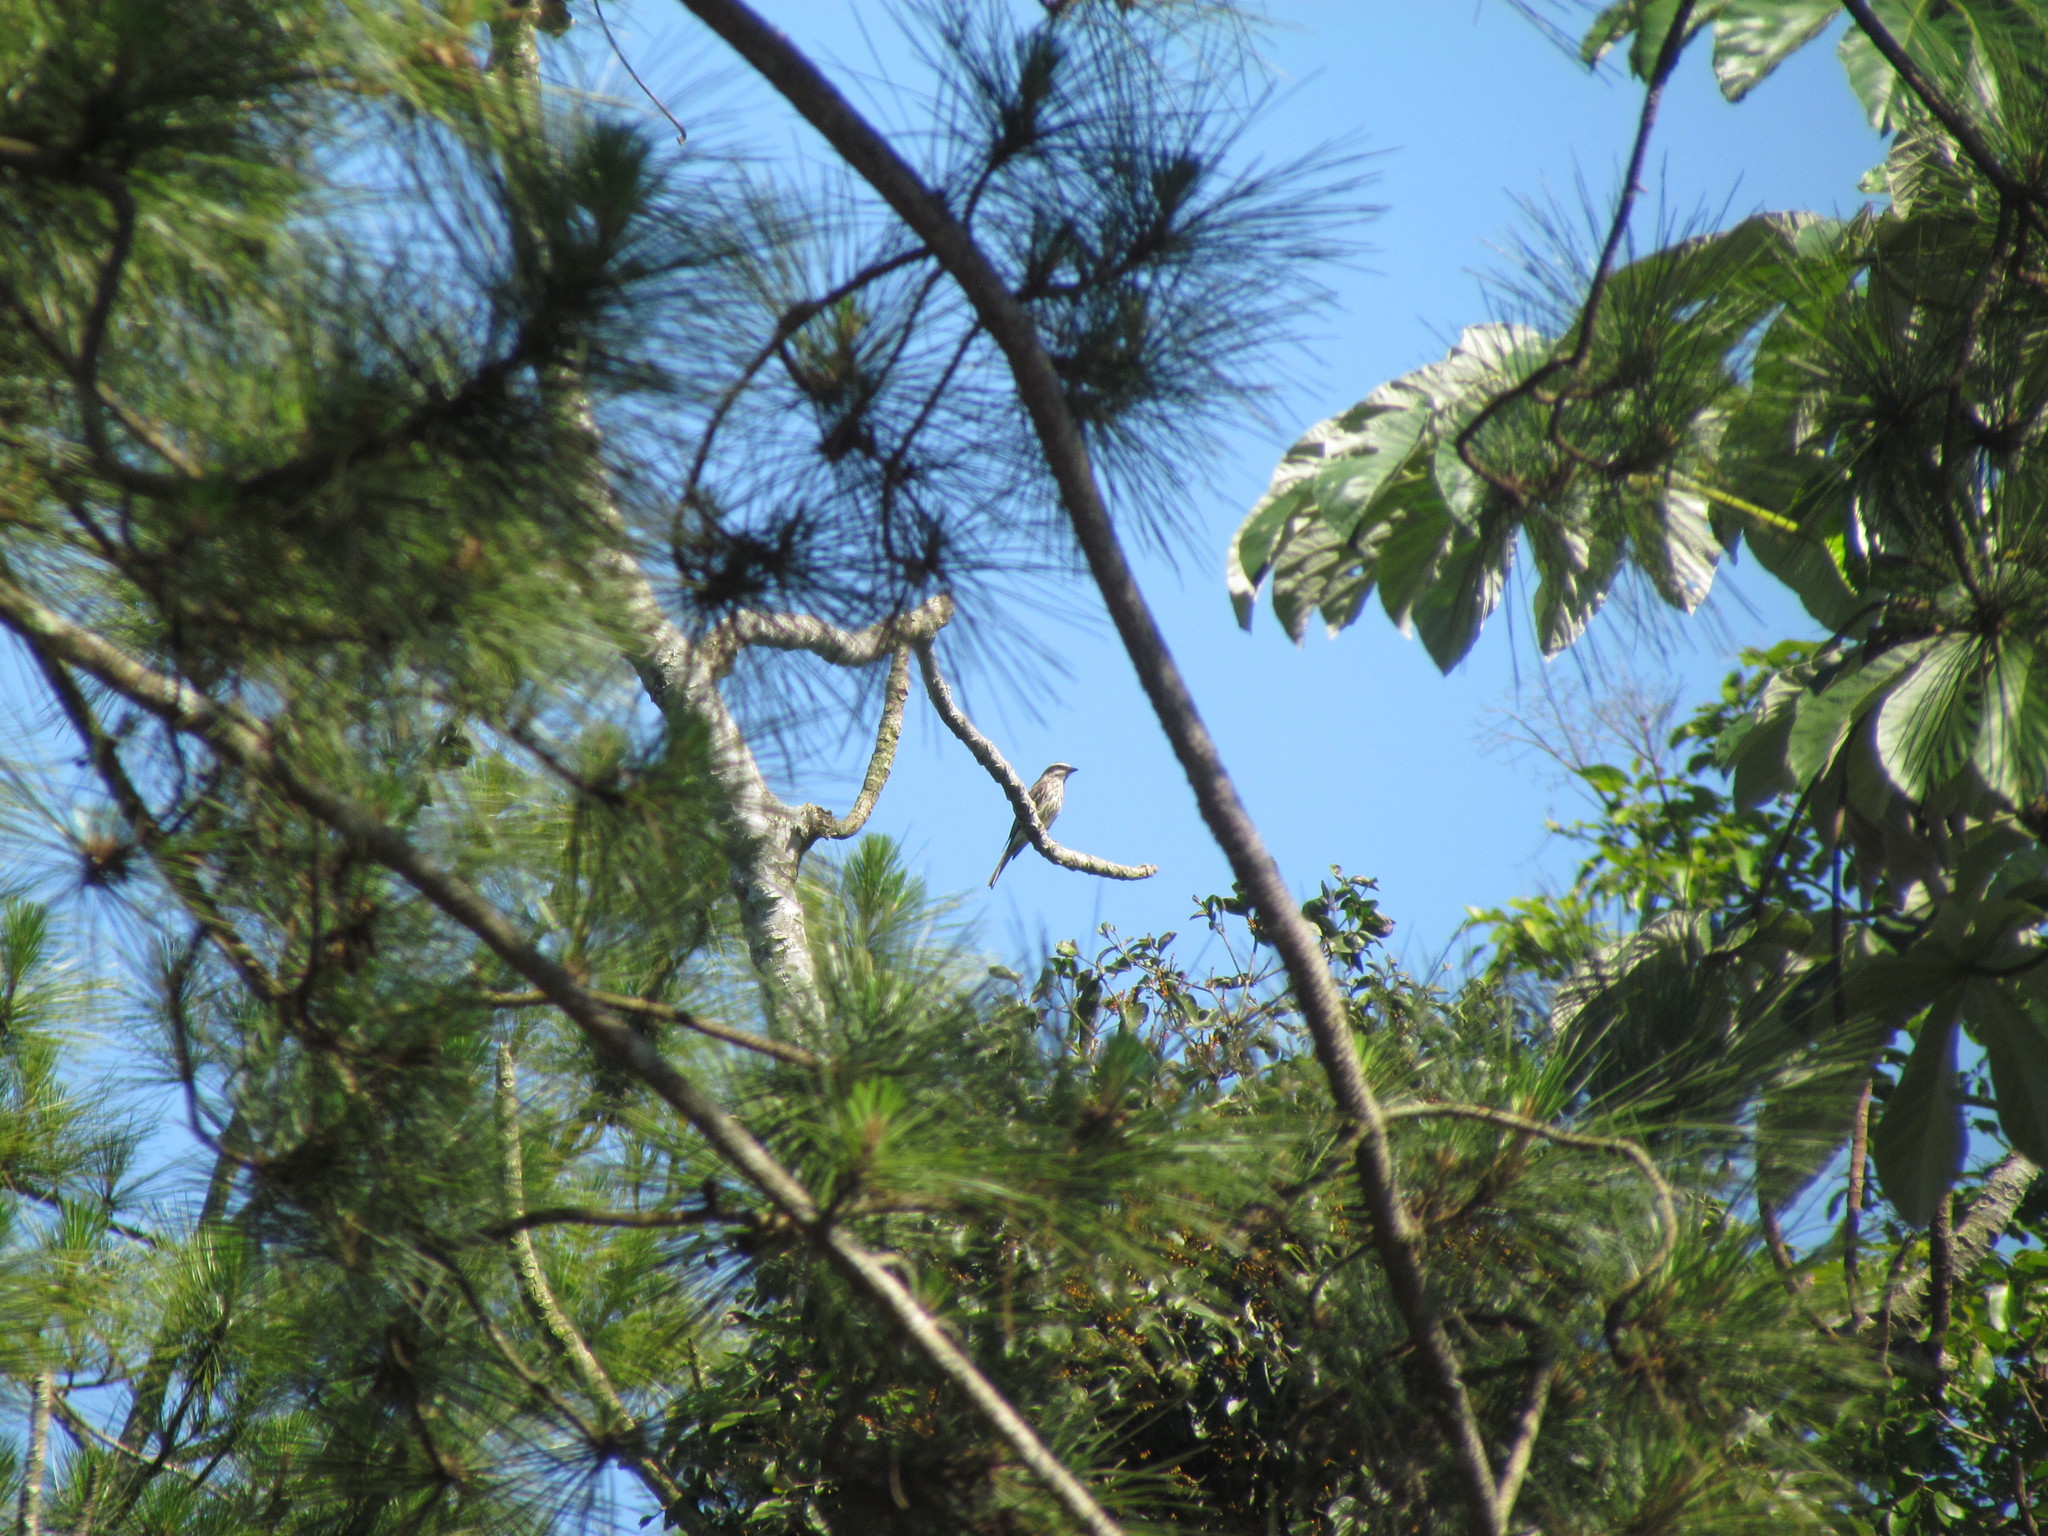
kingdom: Animalia
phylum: Chordata
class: Aves
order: Passeriformes
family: Tyrannidae
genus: Empidonomus
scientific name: Empidonomus varius
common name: Variegated flycatcher
